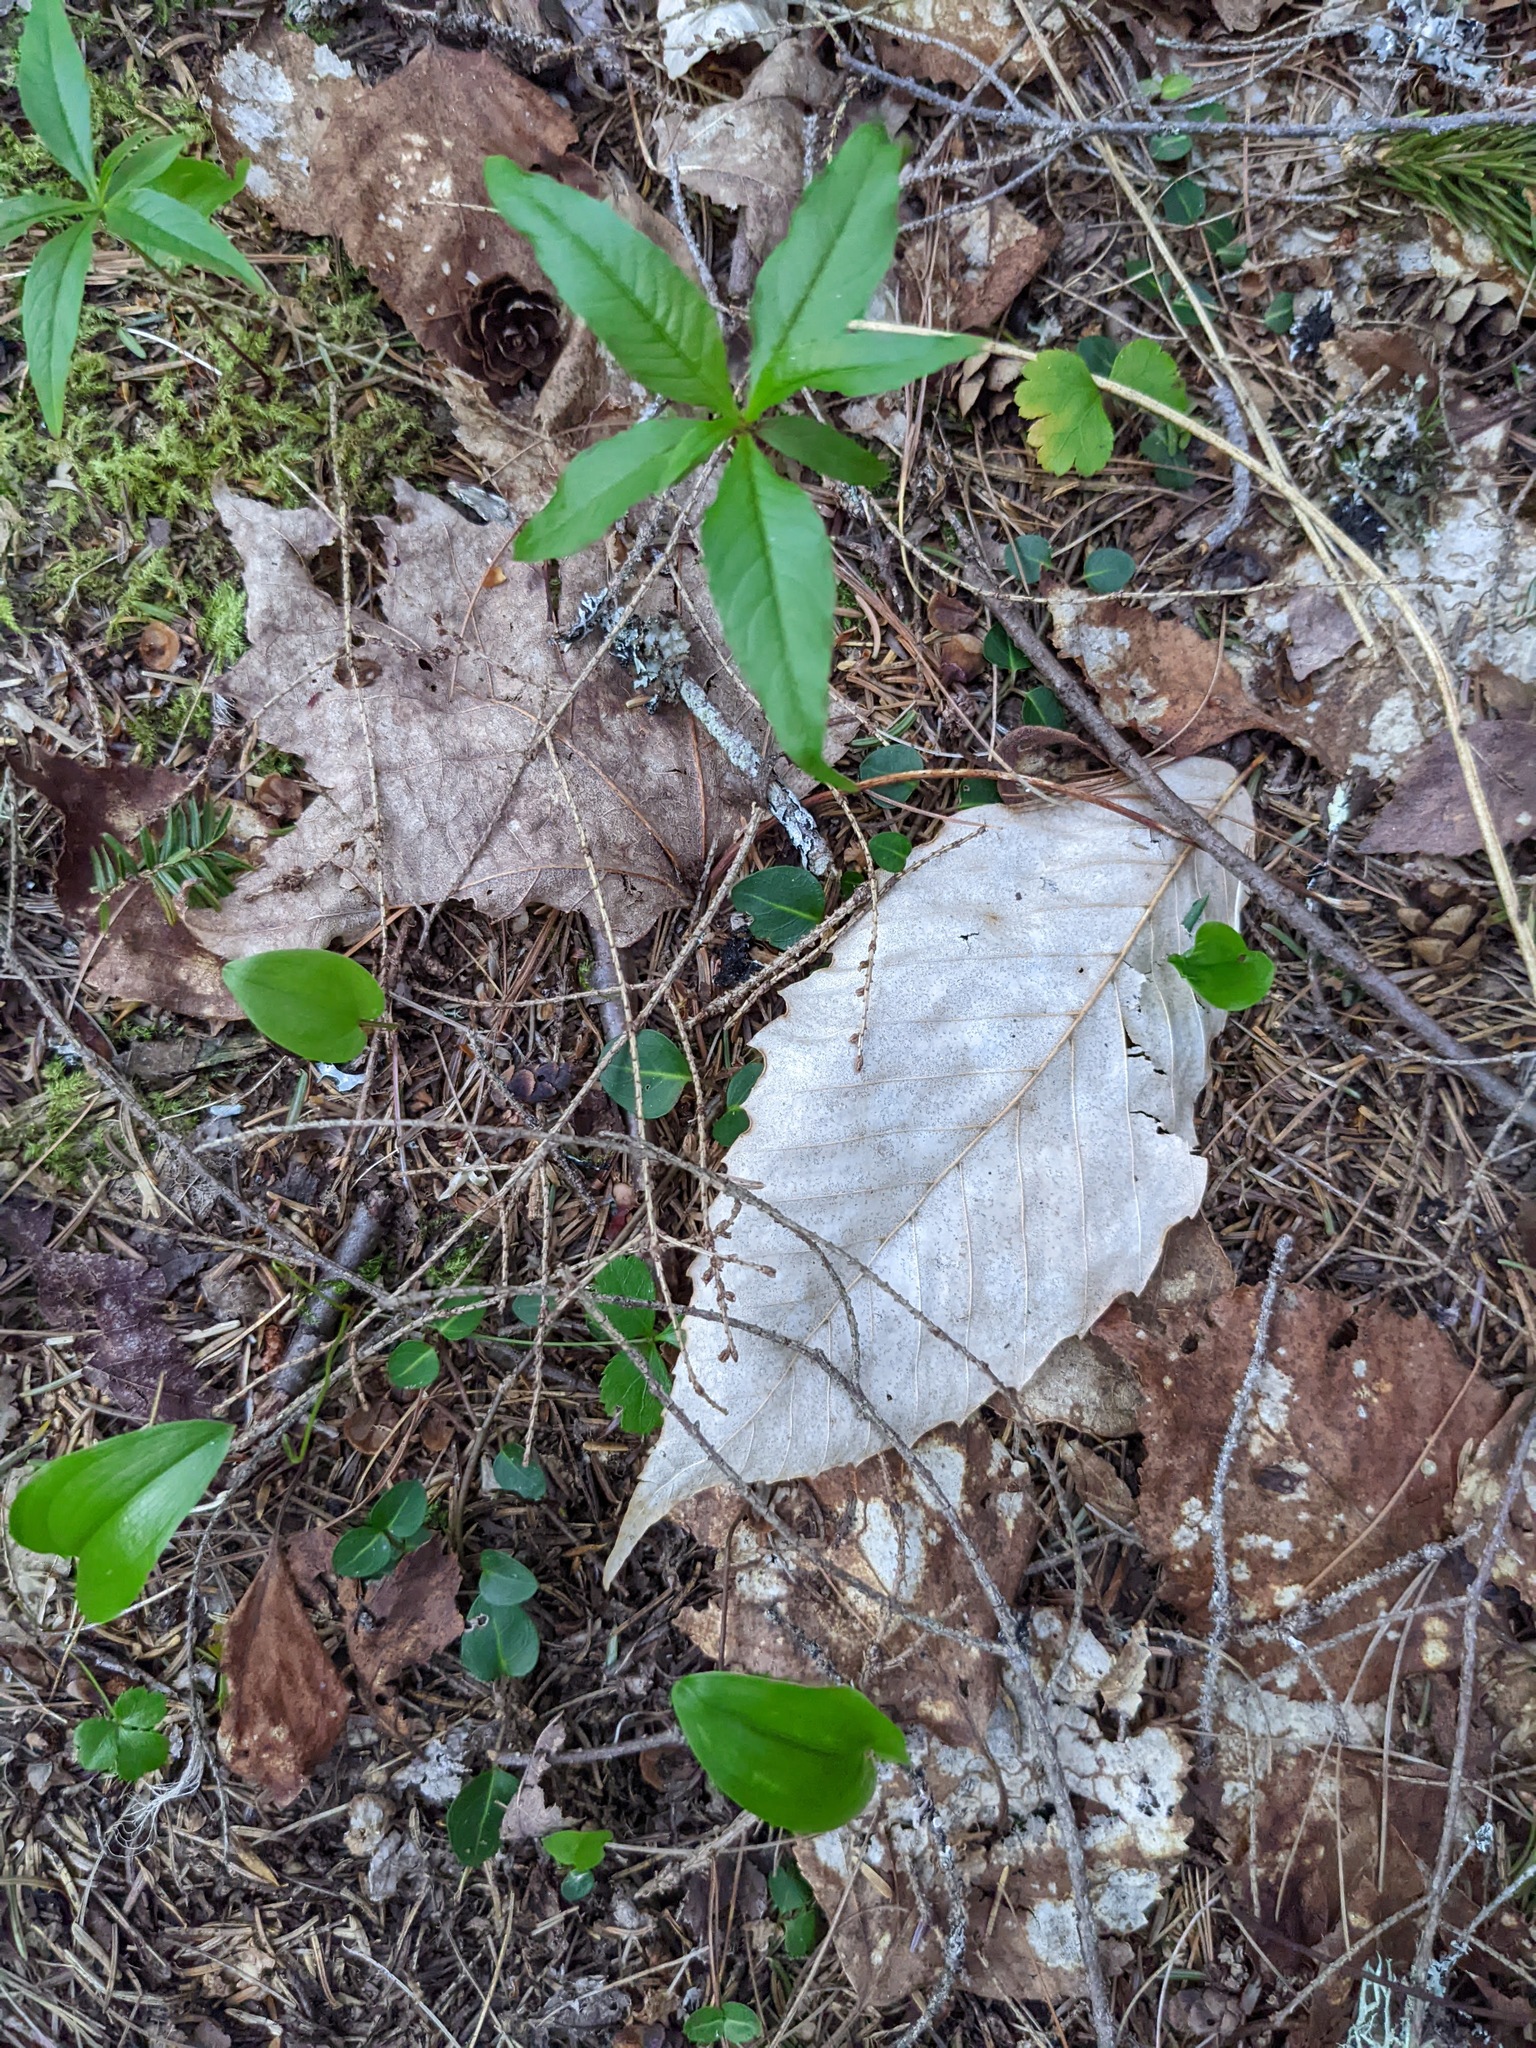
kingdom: Plantae
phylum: Tracheophyta
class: Magnoliopsida
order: Fagales
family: Fagaceae
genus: Fagus
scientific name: Fagus grandifolia
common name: American beech
